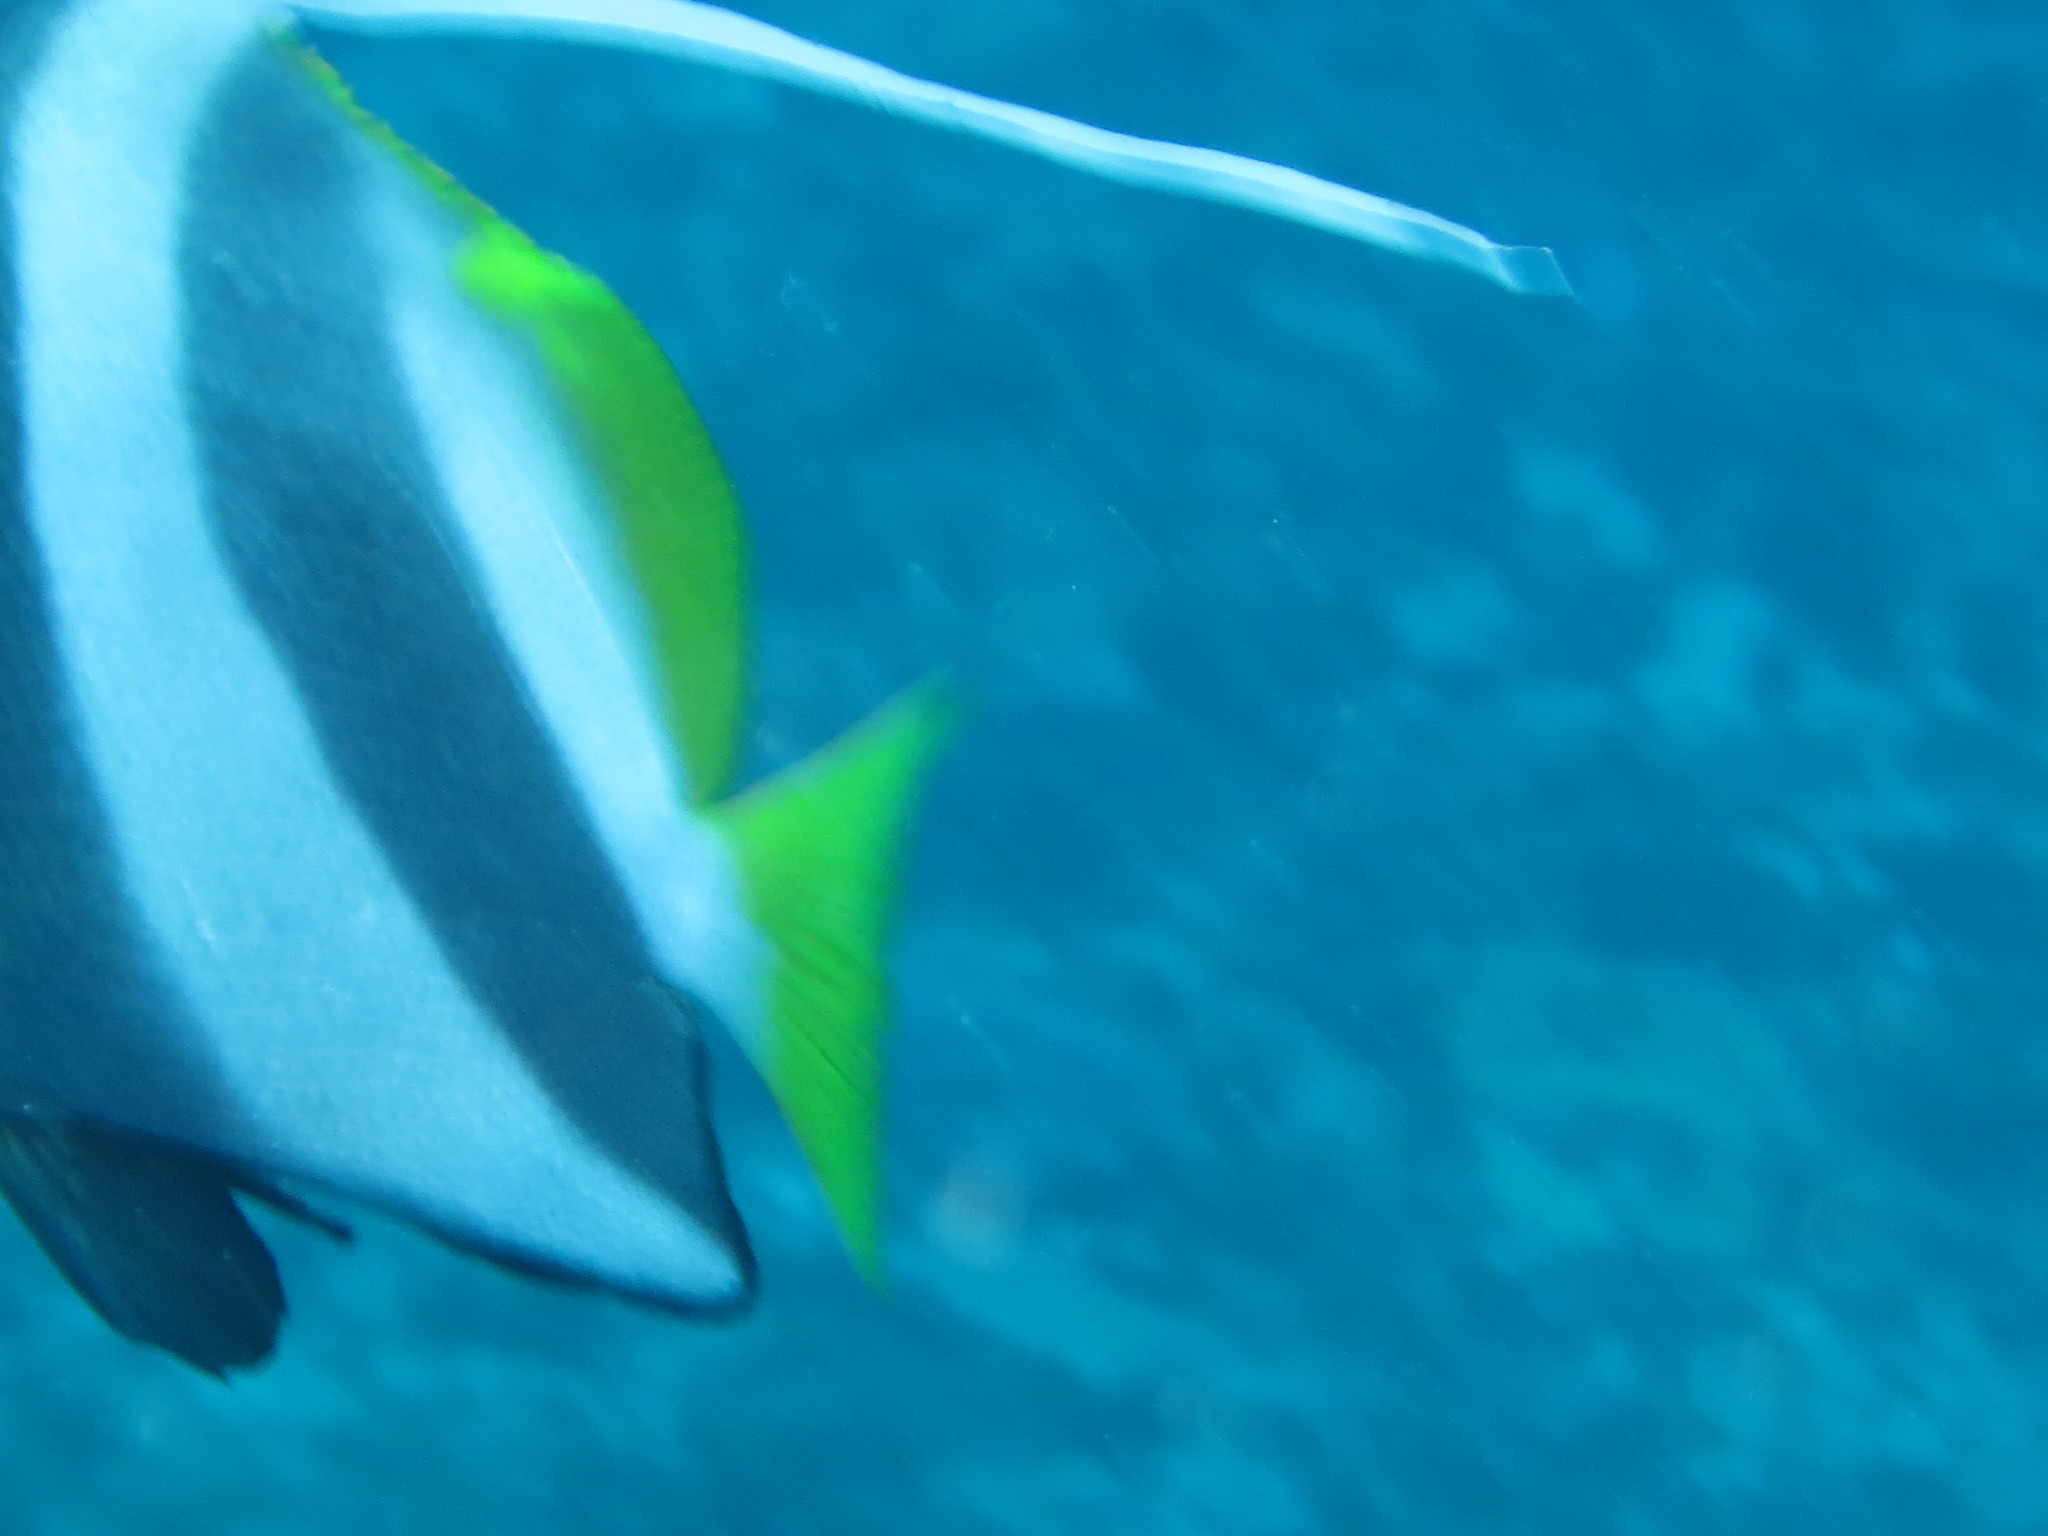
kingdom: Animalia
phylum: Chordata
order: Perciformes
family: Chaetodontidae
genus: Heniochus
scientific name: Heniochus acuminatus
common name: Pennant coralfish
